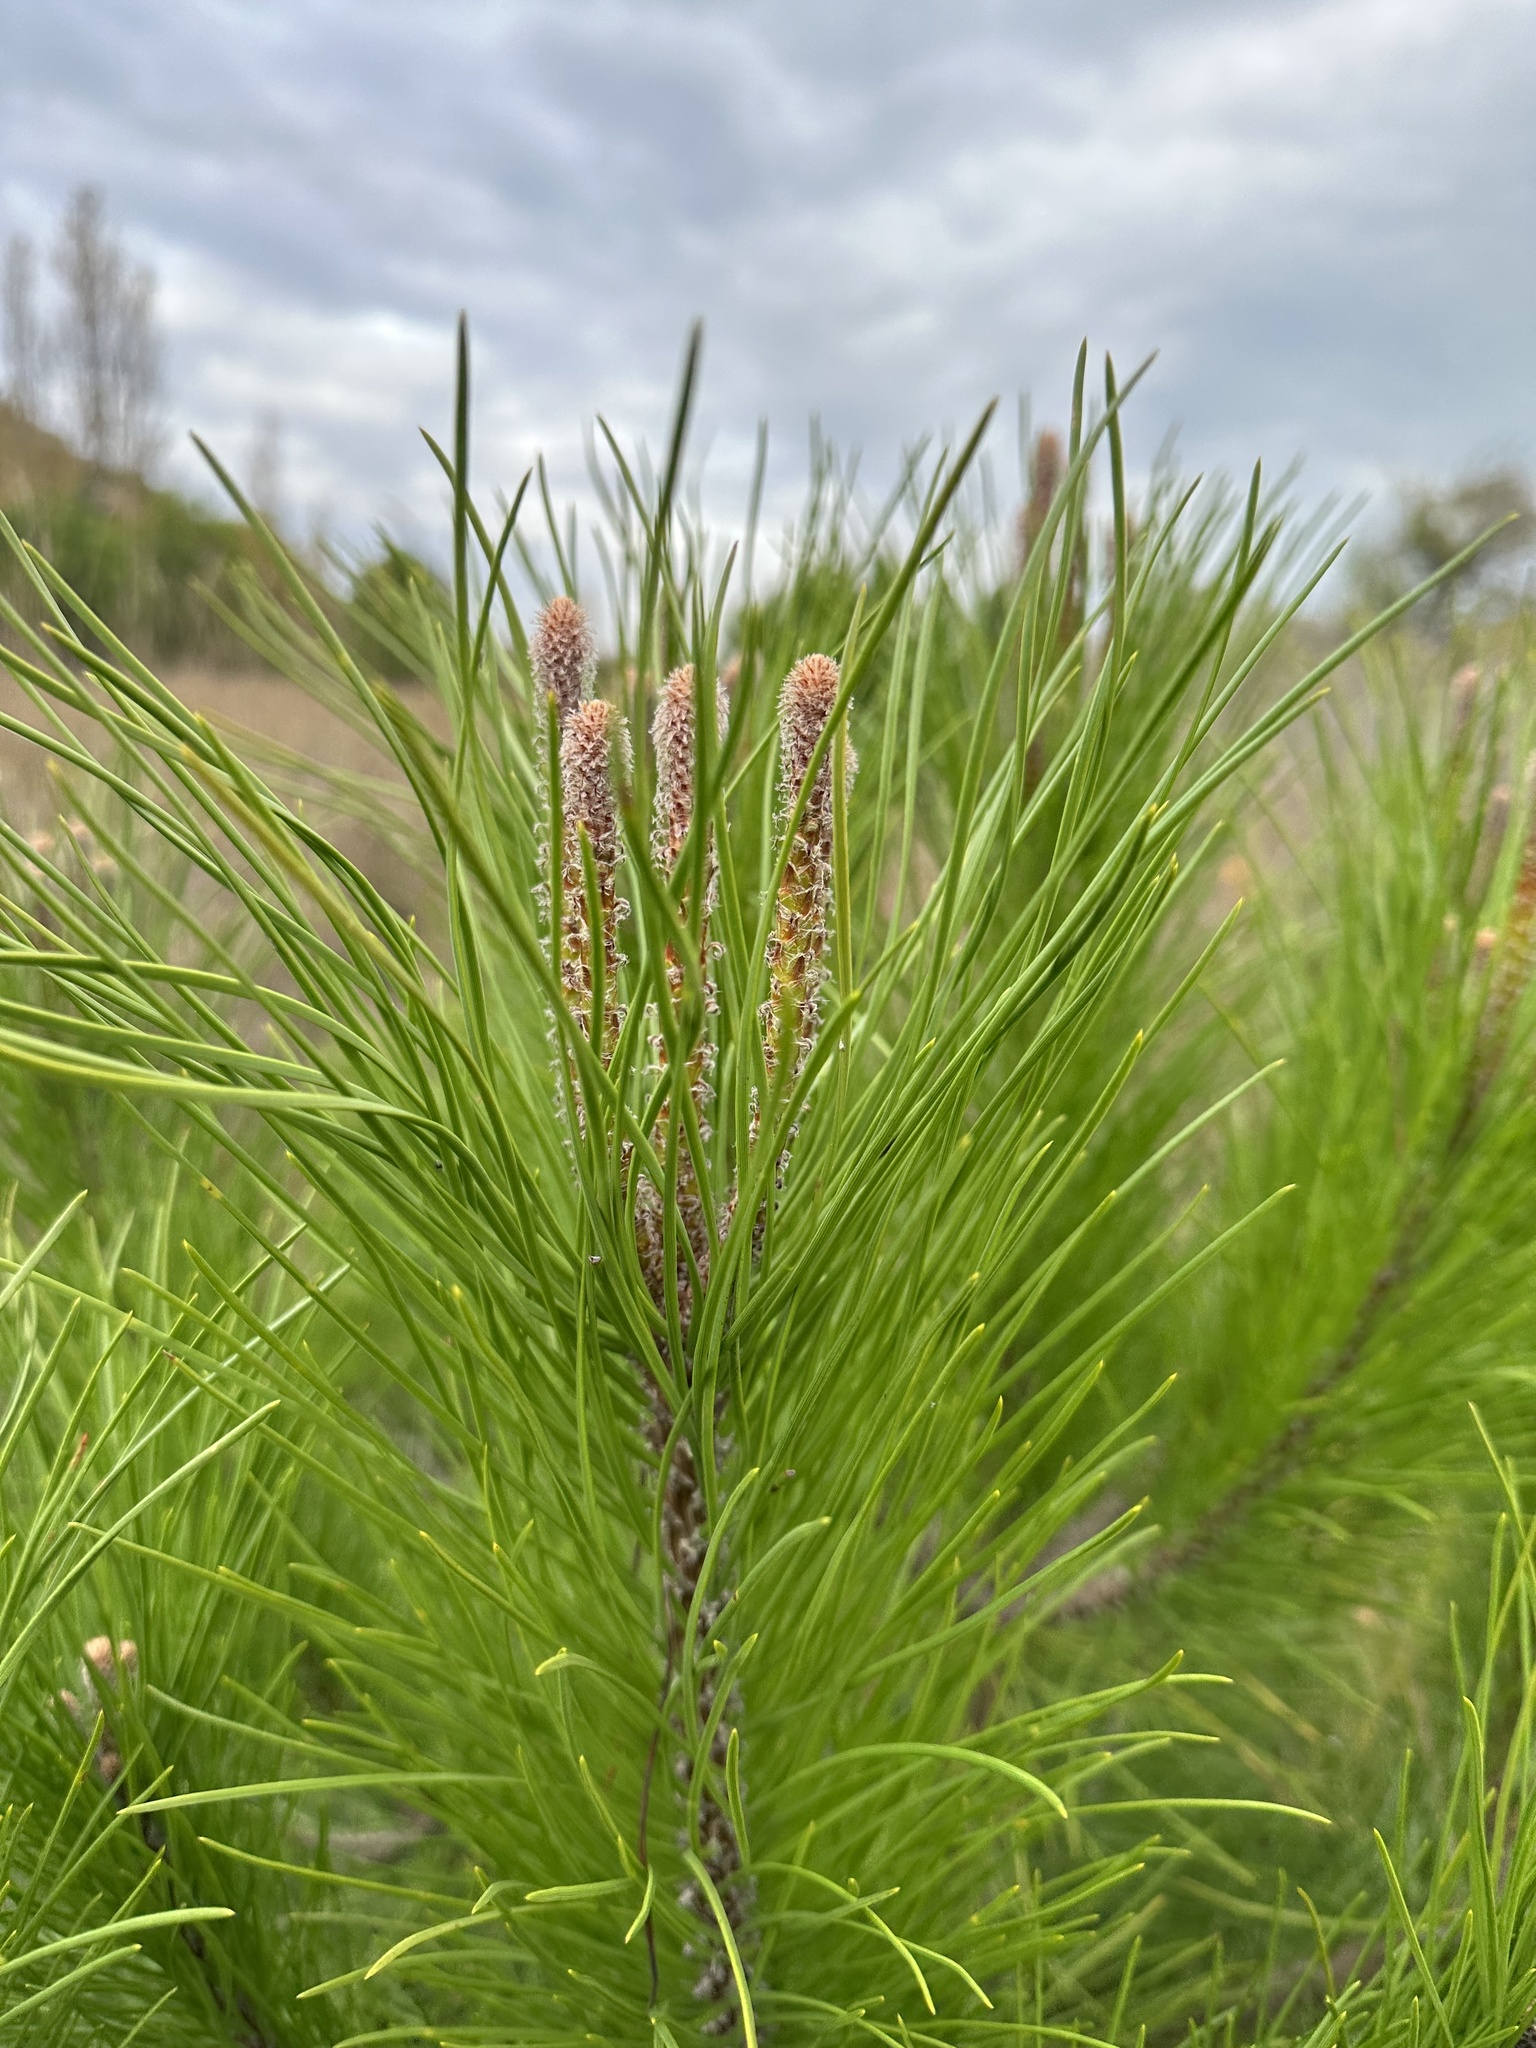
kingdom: Plantae
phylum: Tracheophyta
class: Pinopsida
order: Pinales
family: Pinaceae
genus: Pinus
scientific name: Pinus halepensis
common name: Aleppo pine
